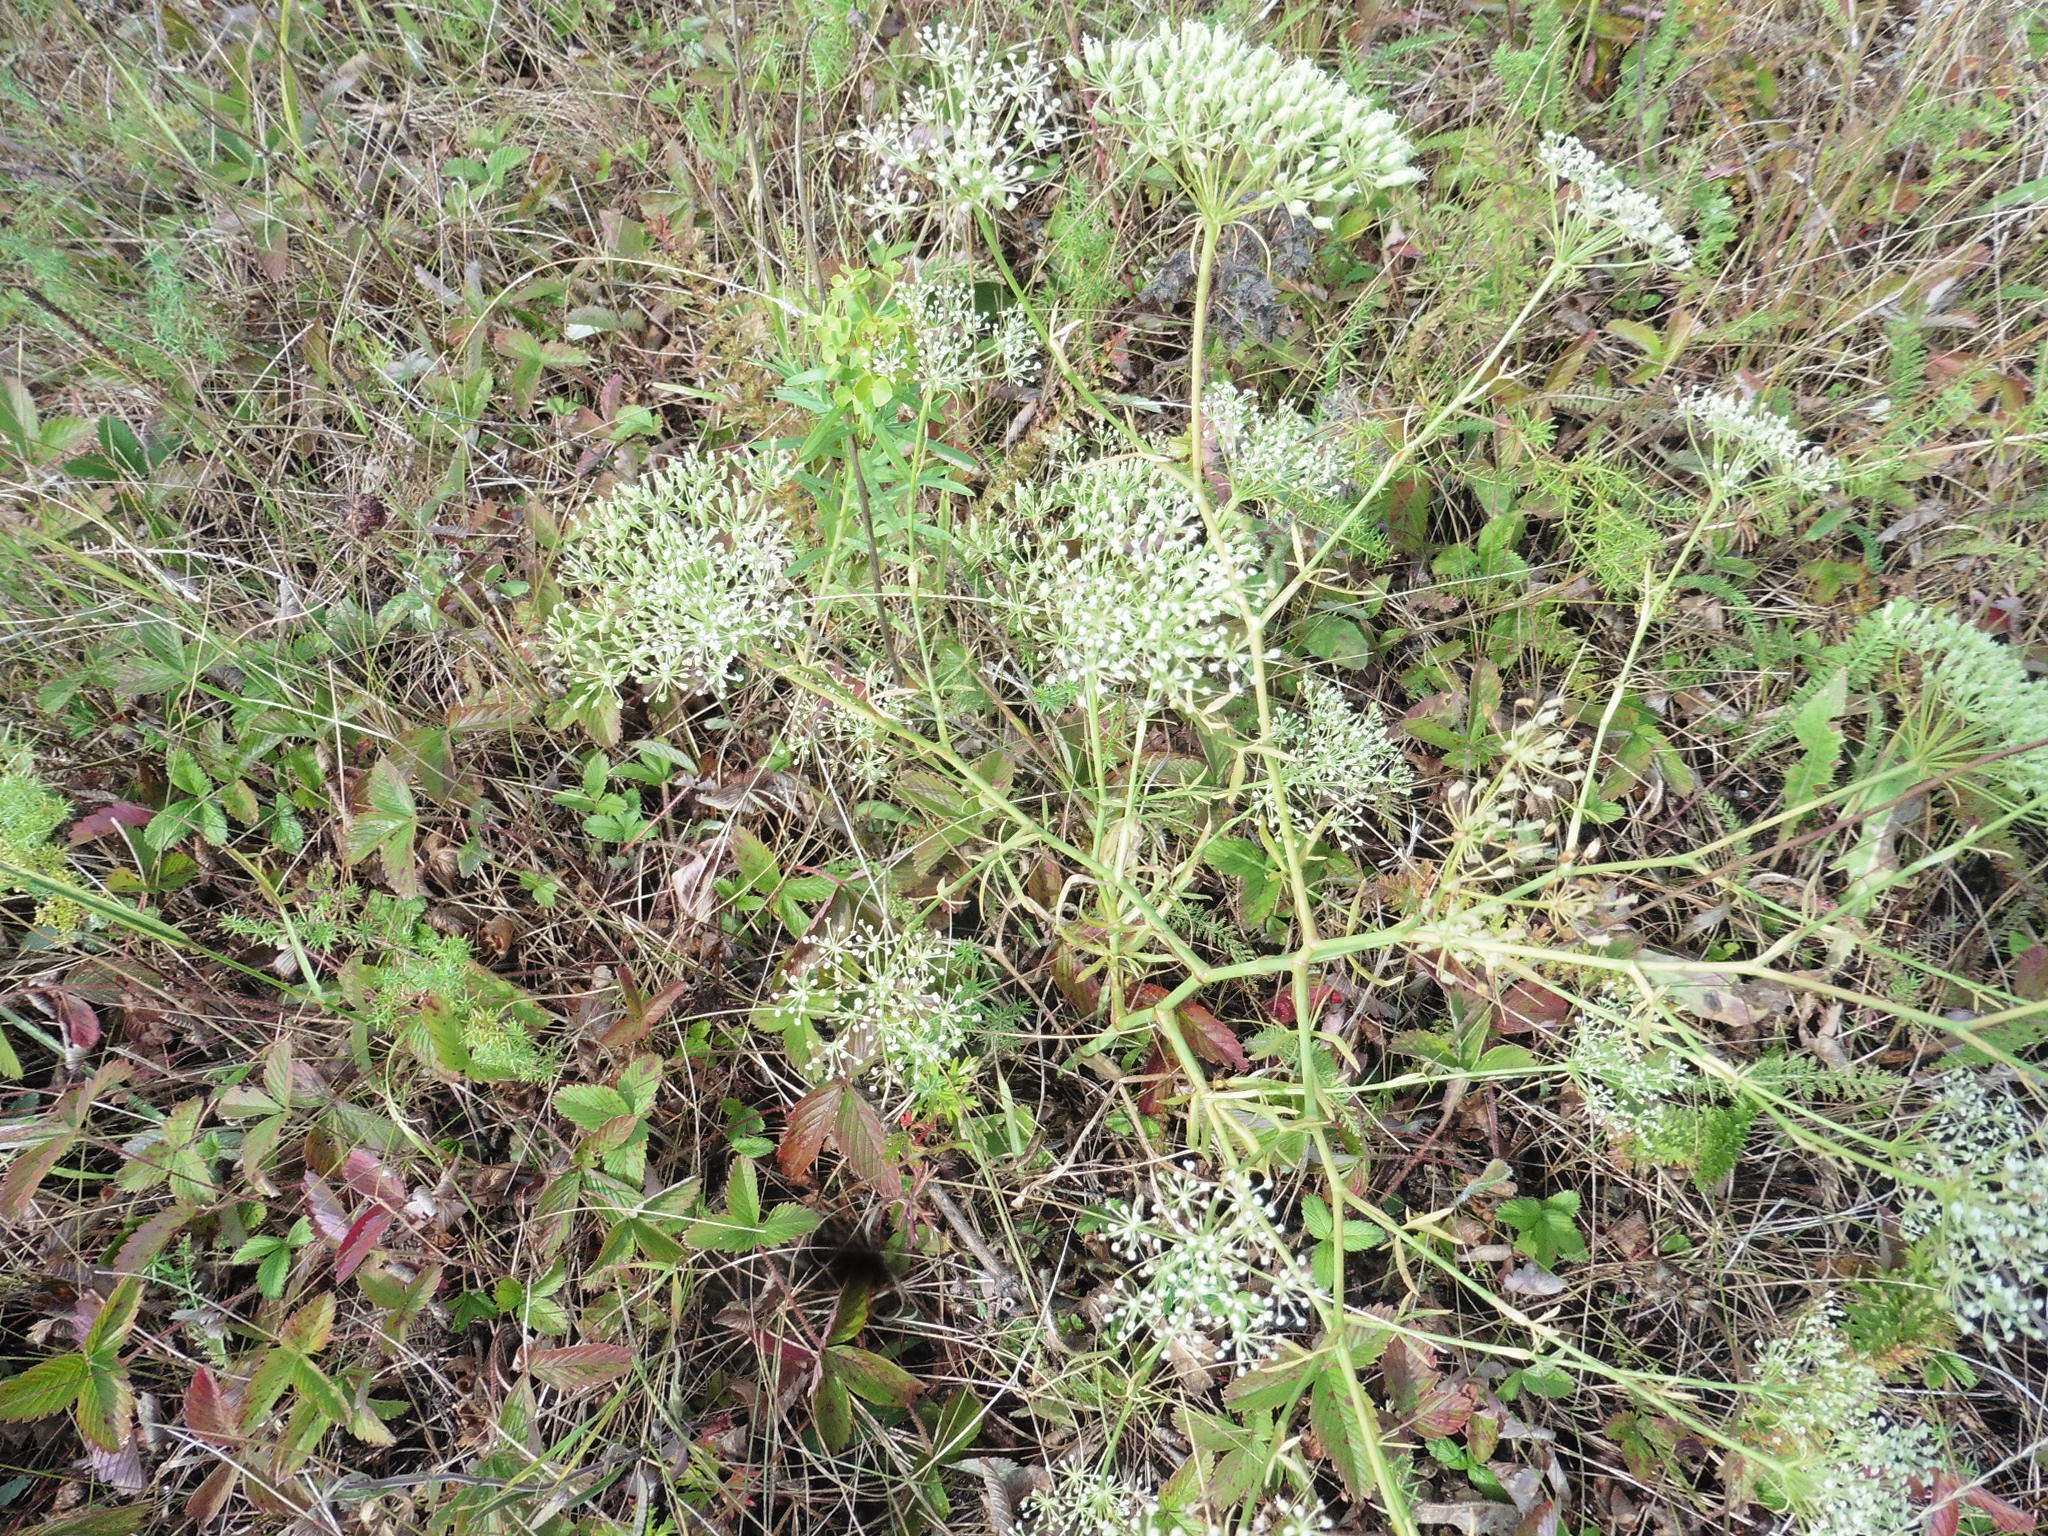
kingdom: Plantae
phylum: Tracheophyta
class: Magnoliopsida
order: Apiales
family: Apiaceae
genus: Falcaria
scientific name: Falcaria vulgaris
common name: Longleaf
